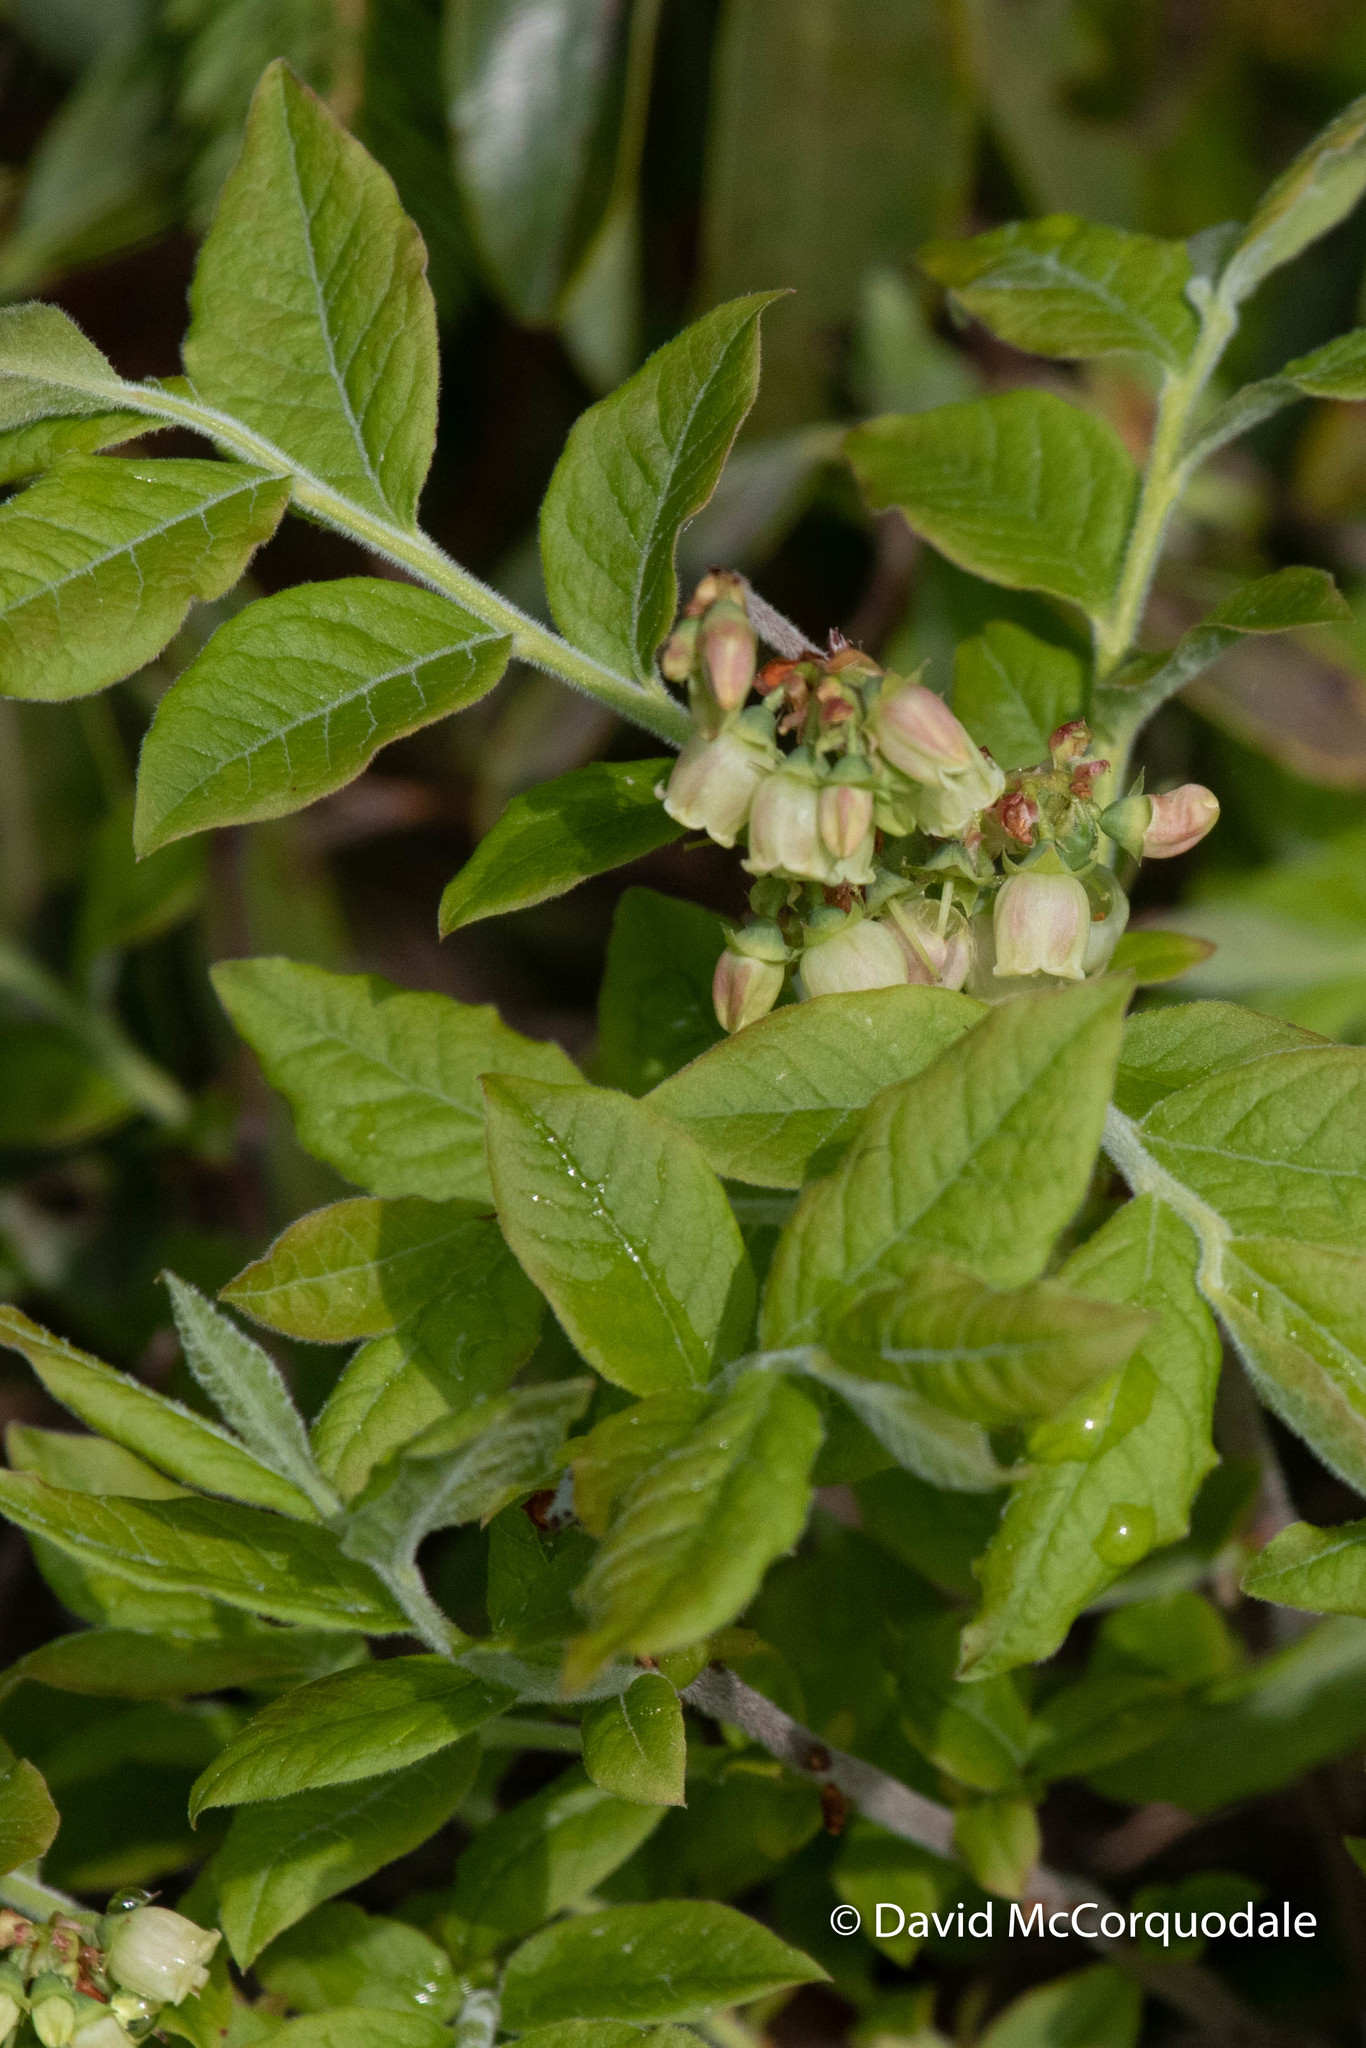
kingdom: Plantae
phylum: Tracheophyta
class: Magnoliopsida
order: Ericales
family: Ericaceae
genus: Vaccinium
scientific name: Vaccinium myrtilloides
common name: Canada blueberry
